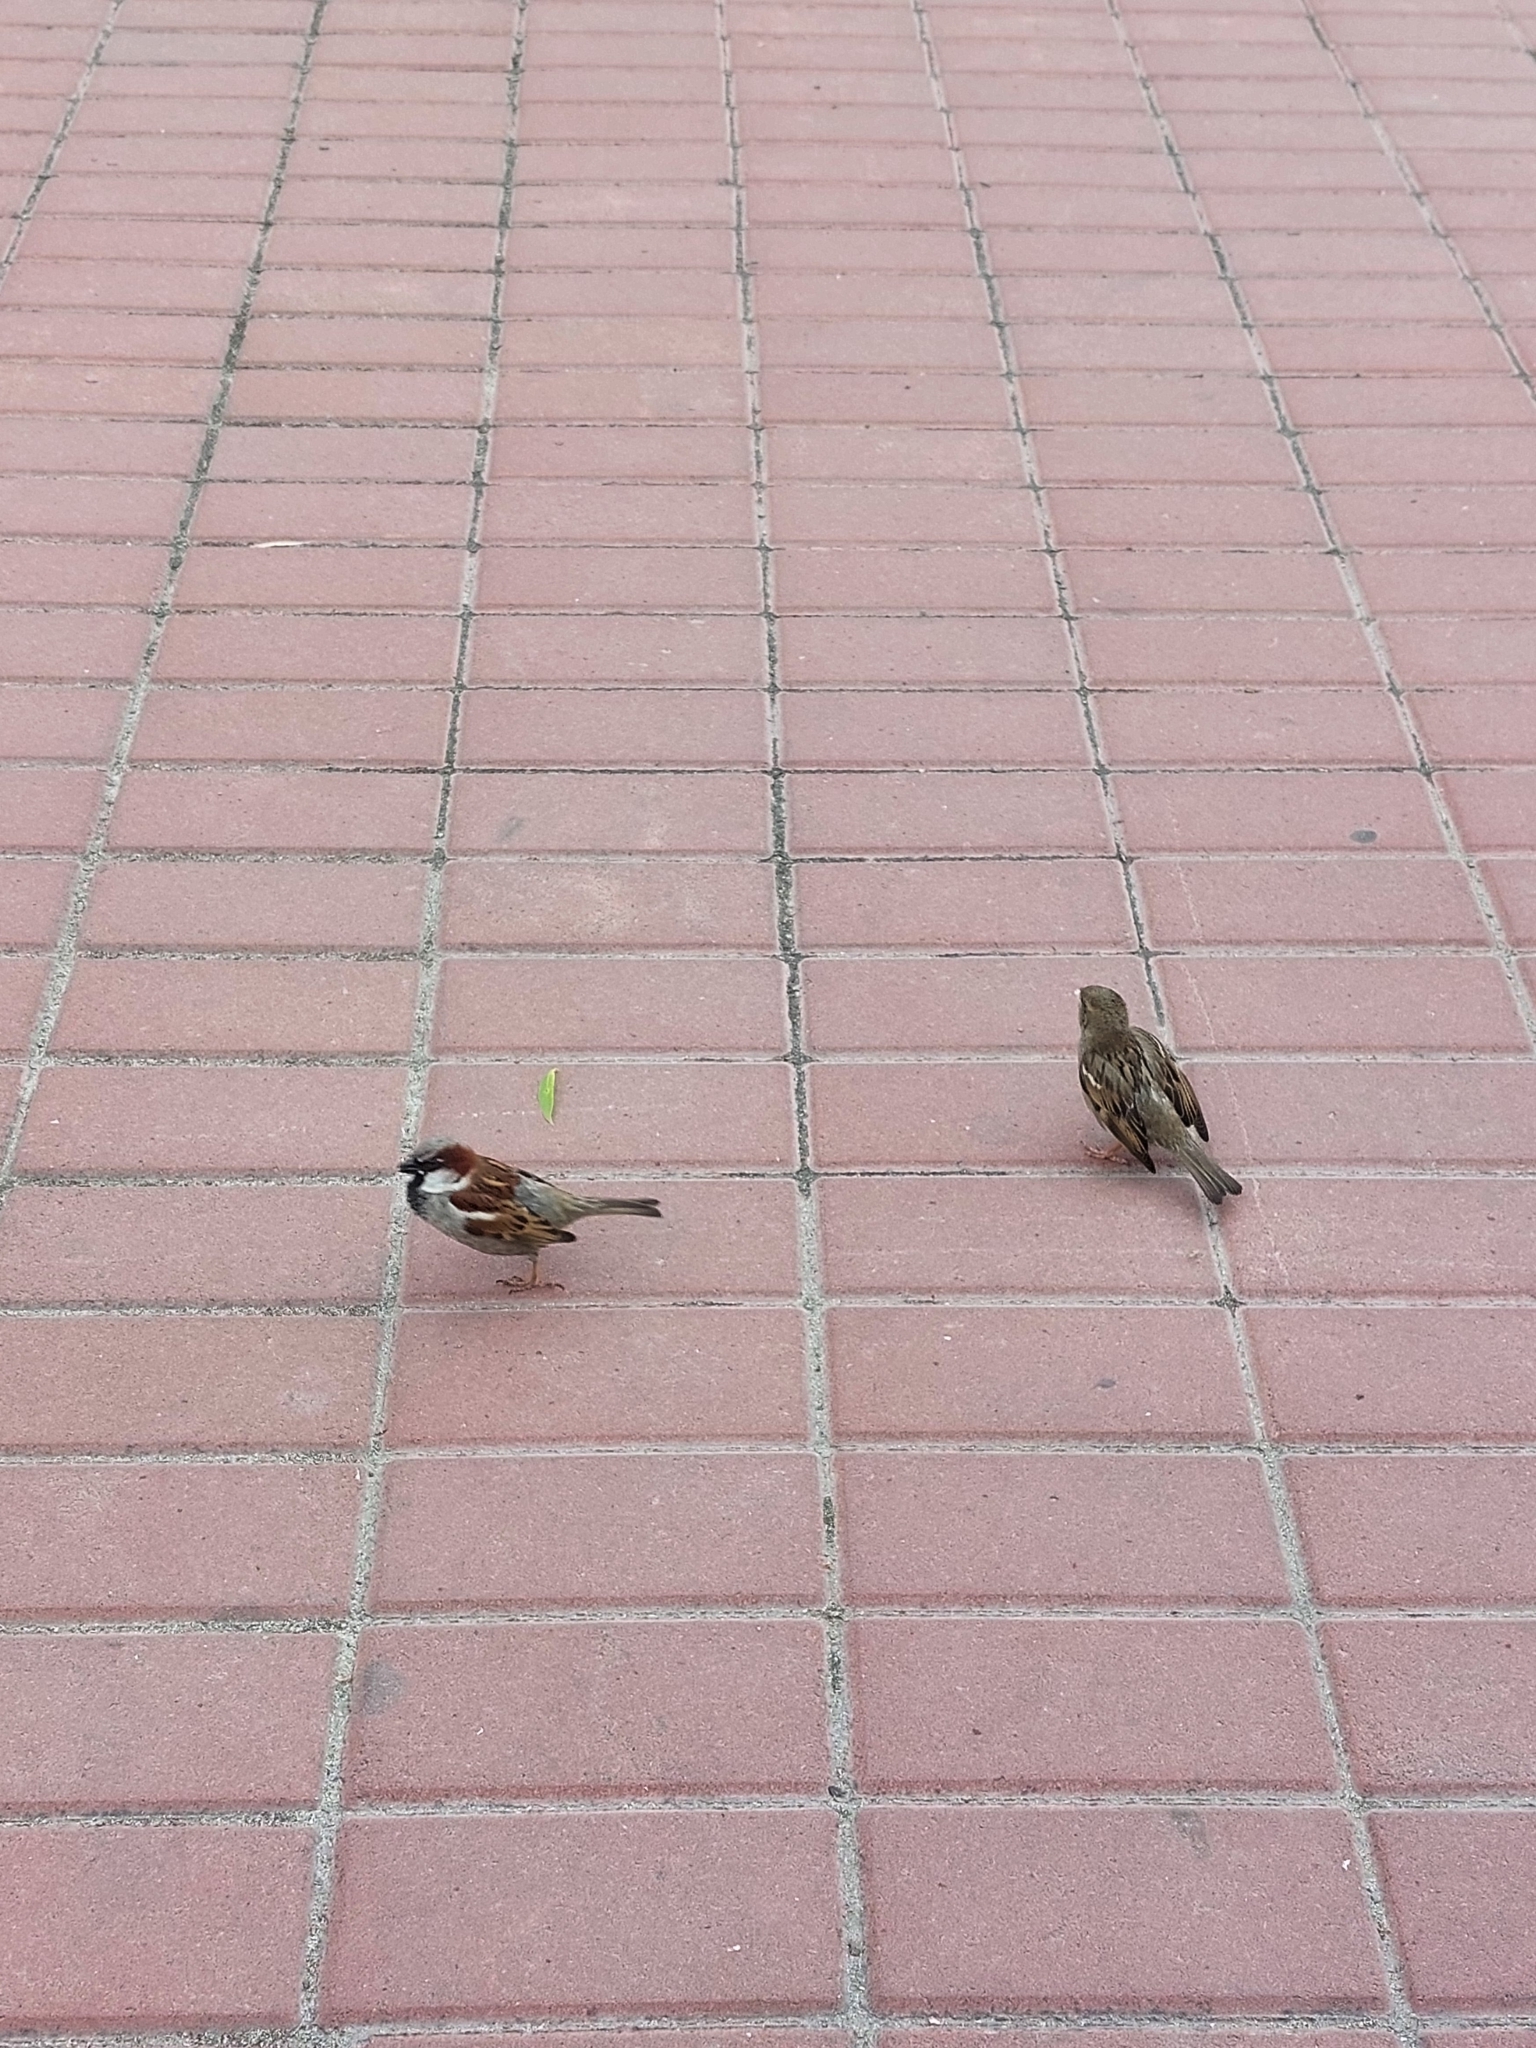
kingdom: Animalia
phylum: Chordata
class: Aves
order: Passeriformes
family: Passeridae
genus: Passer
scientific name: Passer domesticus
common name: House sparrow
